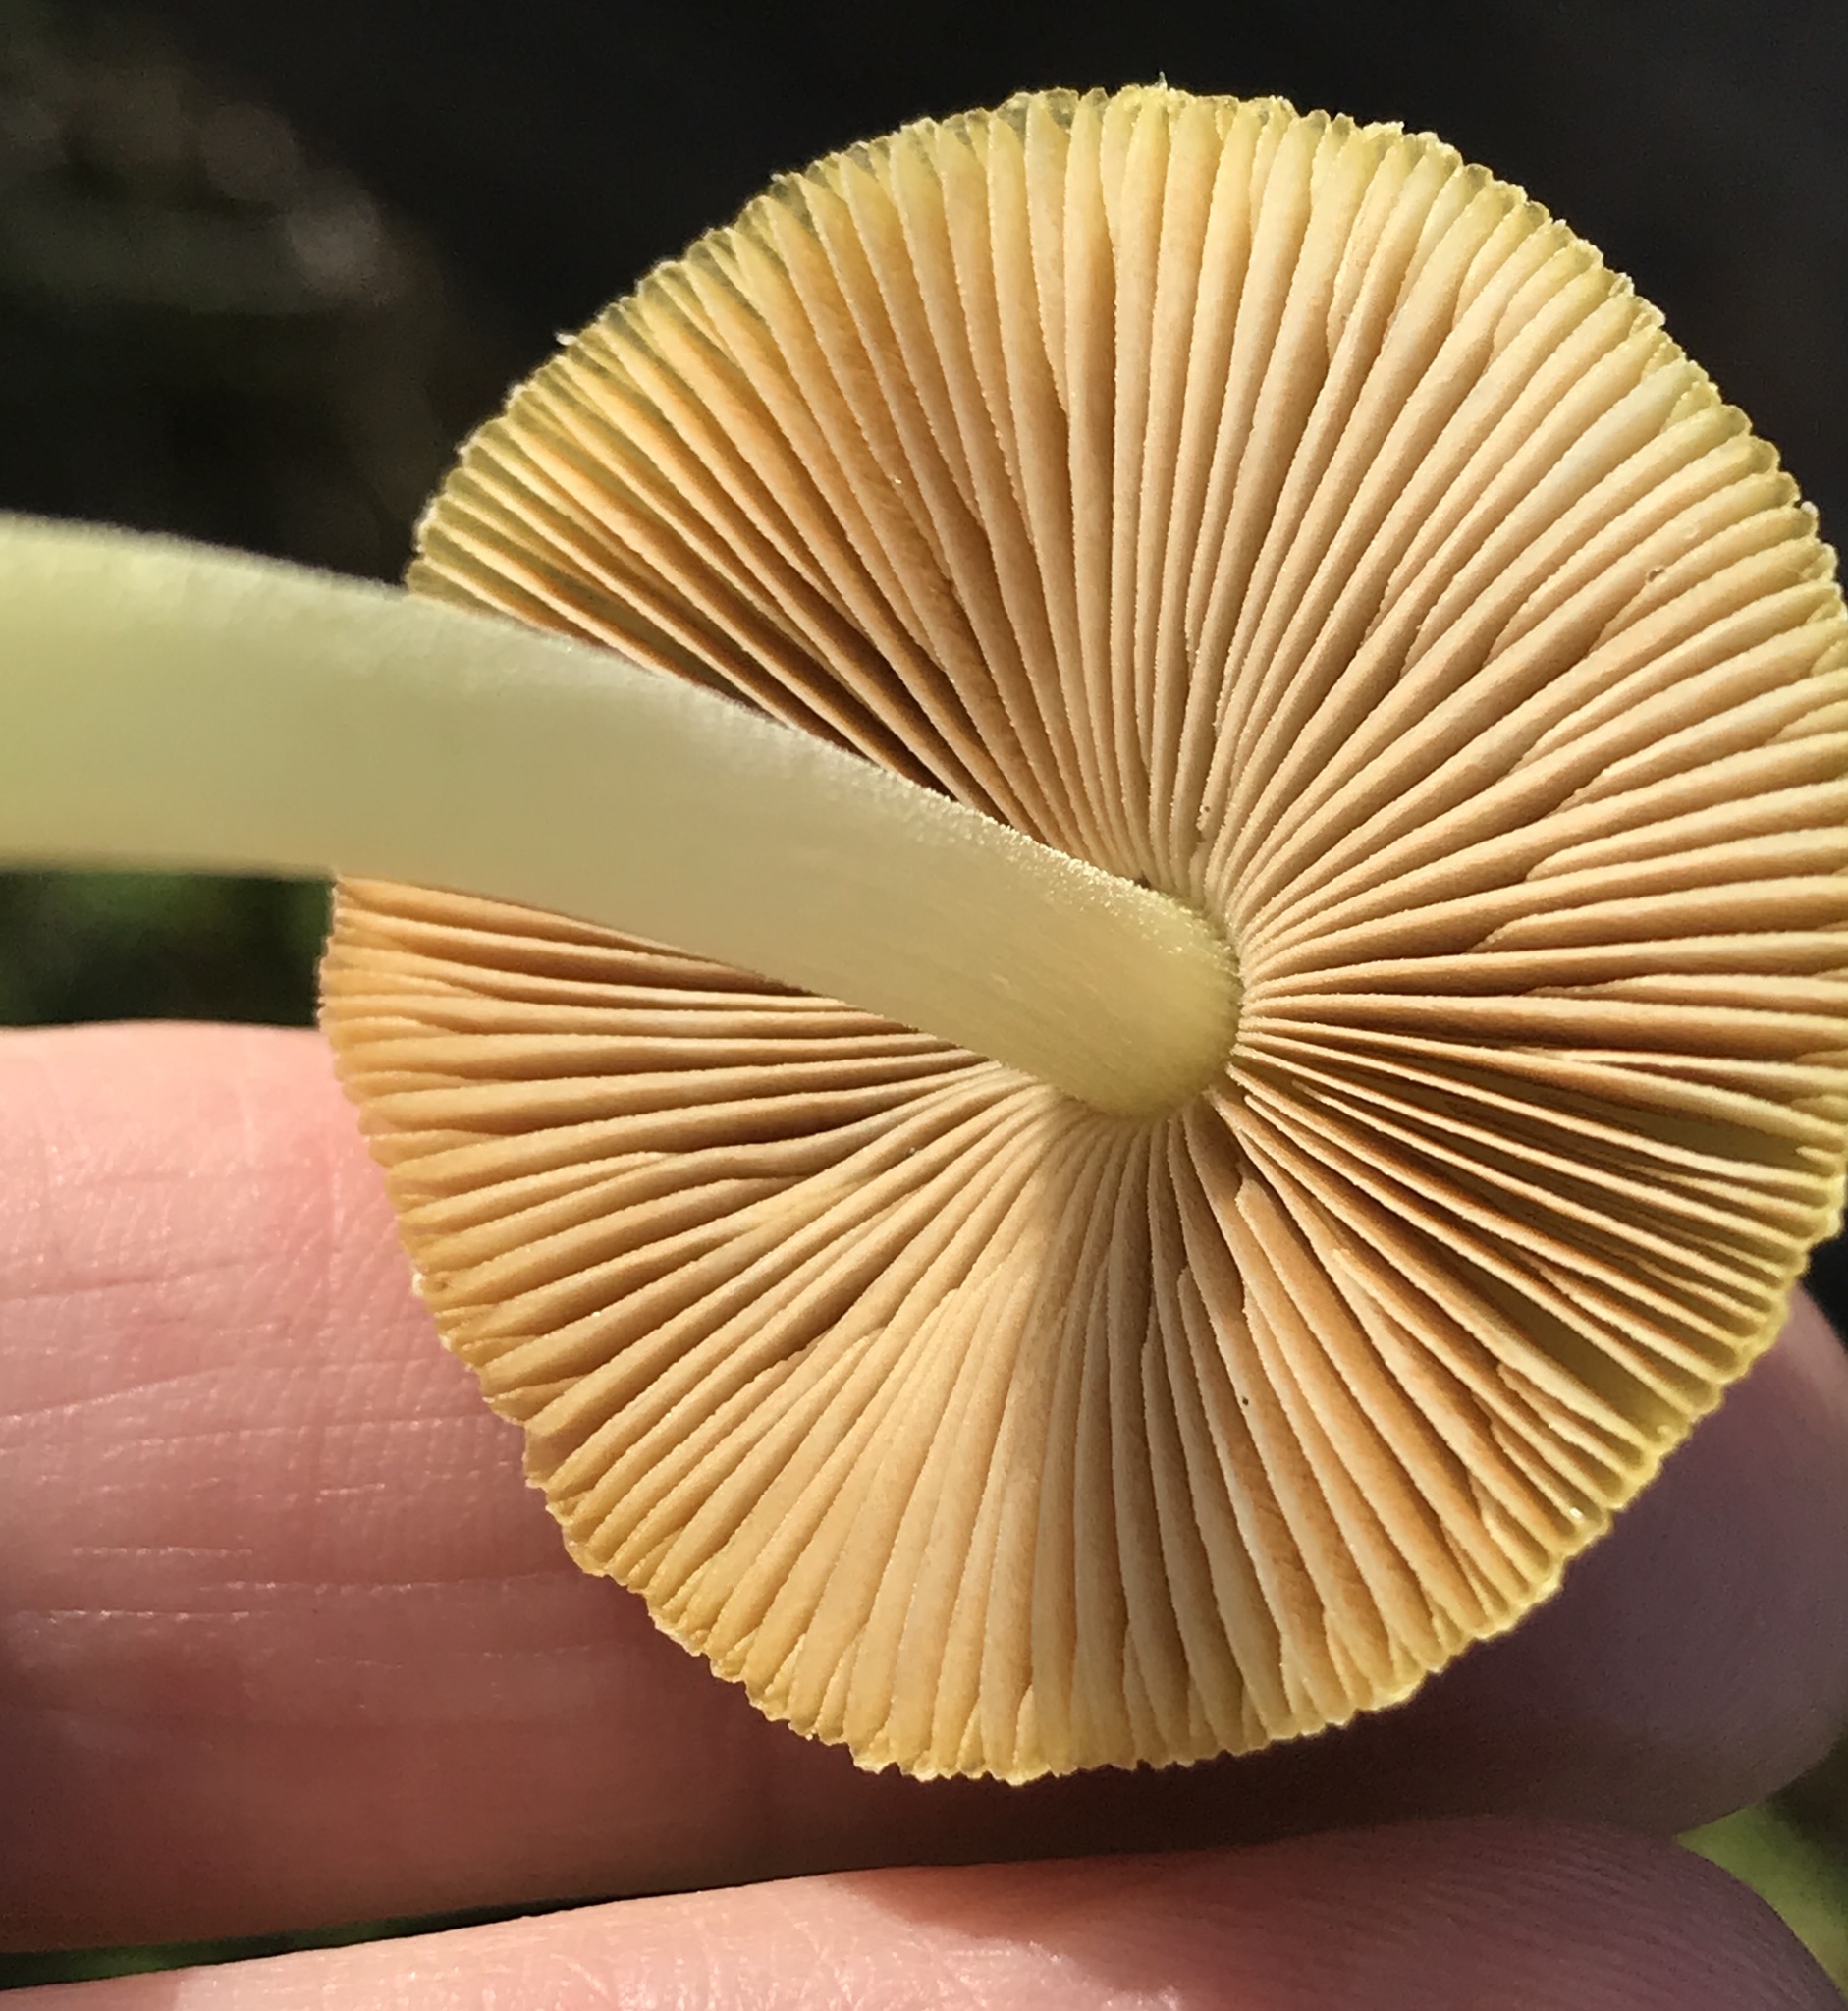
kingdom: Fungi
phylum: Basidiomycota
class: Agaricomycetes
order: Agaricales
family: Bolbitiaceae
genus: Bolbitius
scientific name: Bolbitius titubans
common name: Yellow fieldcap
